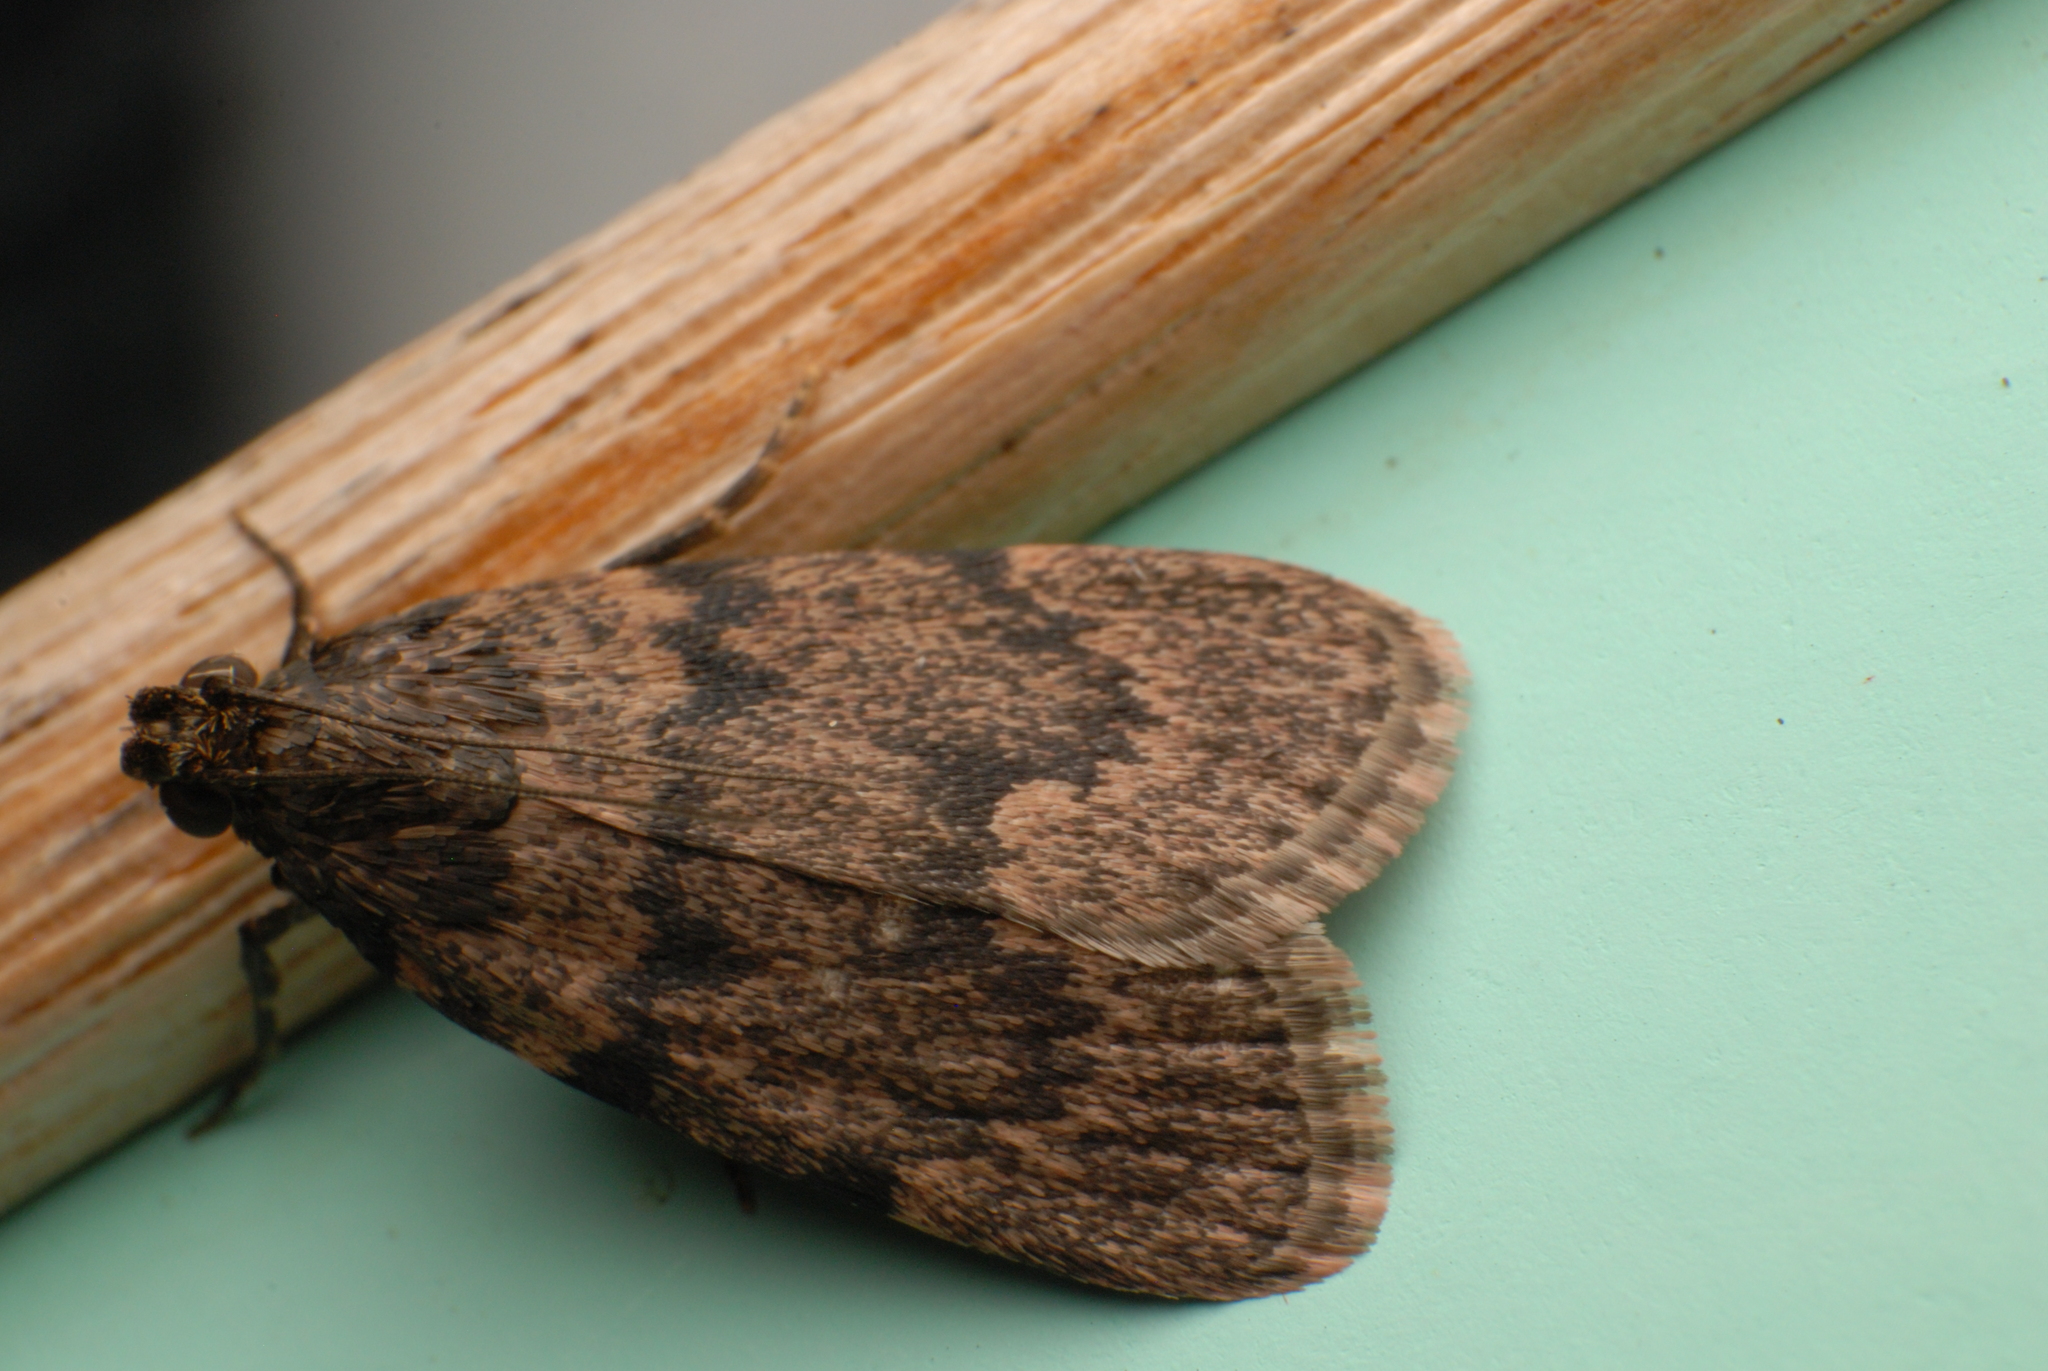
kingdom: Animalia
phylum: Arthropoda
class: Insecta
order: Lepidoptera
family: Pyralidae
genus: Mimaglossa
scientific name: Mimaglossa nauplialis
